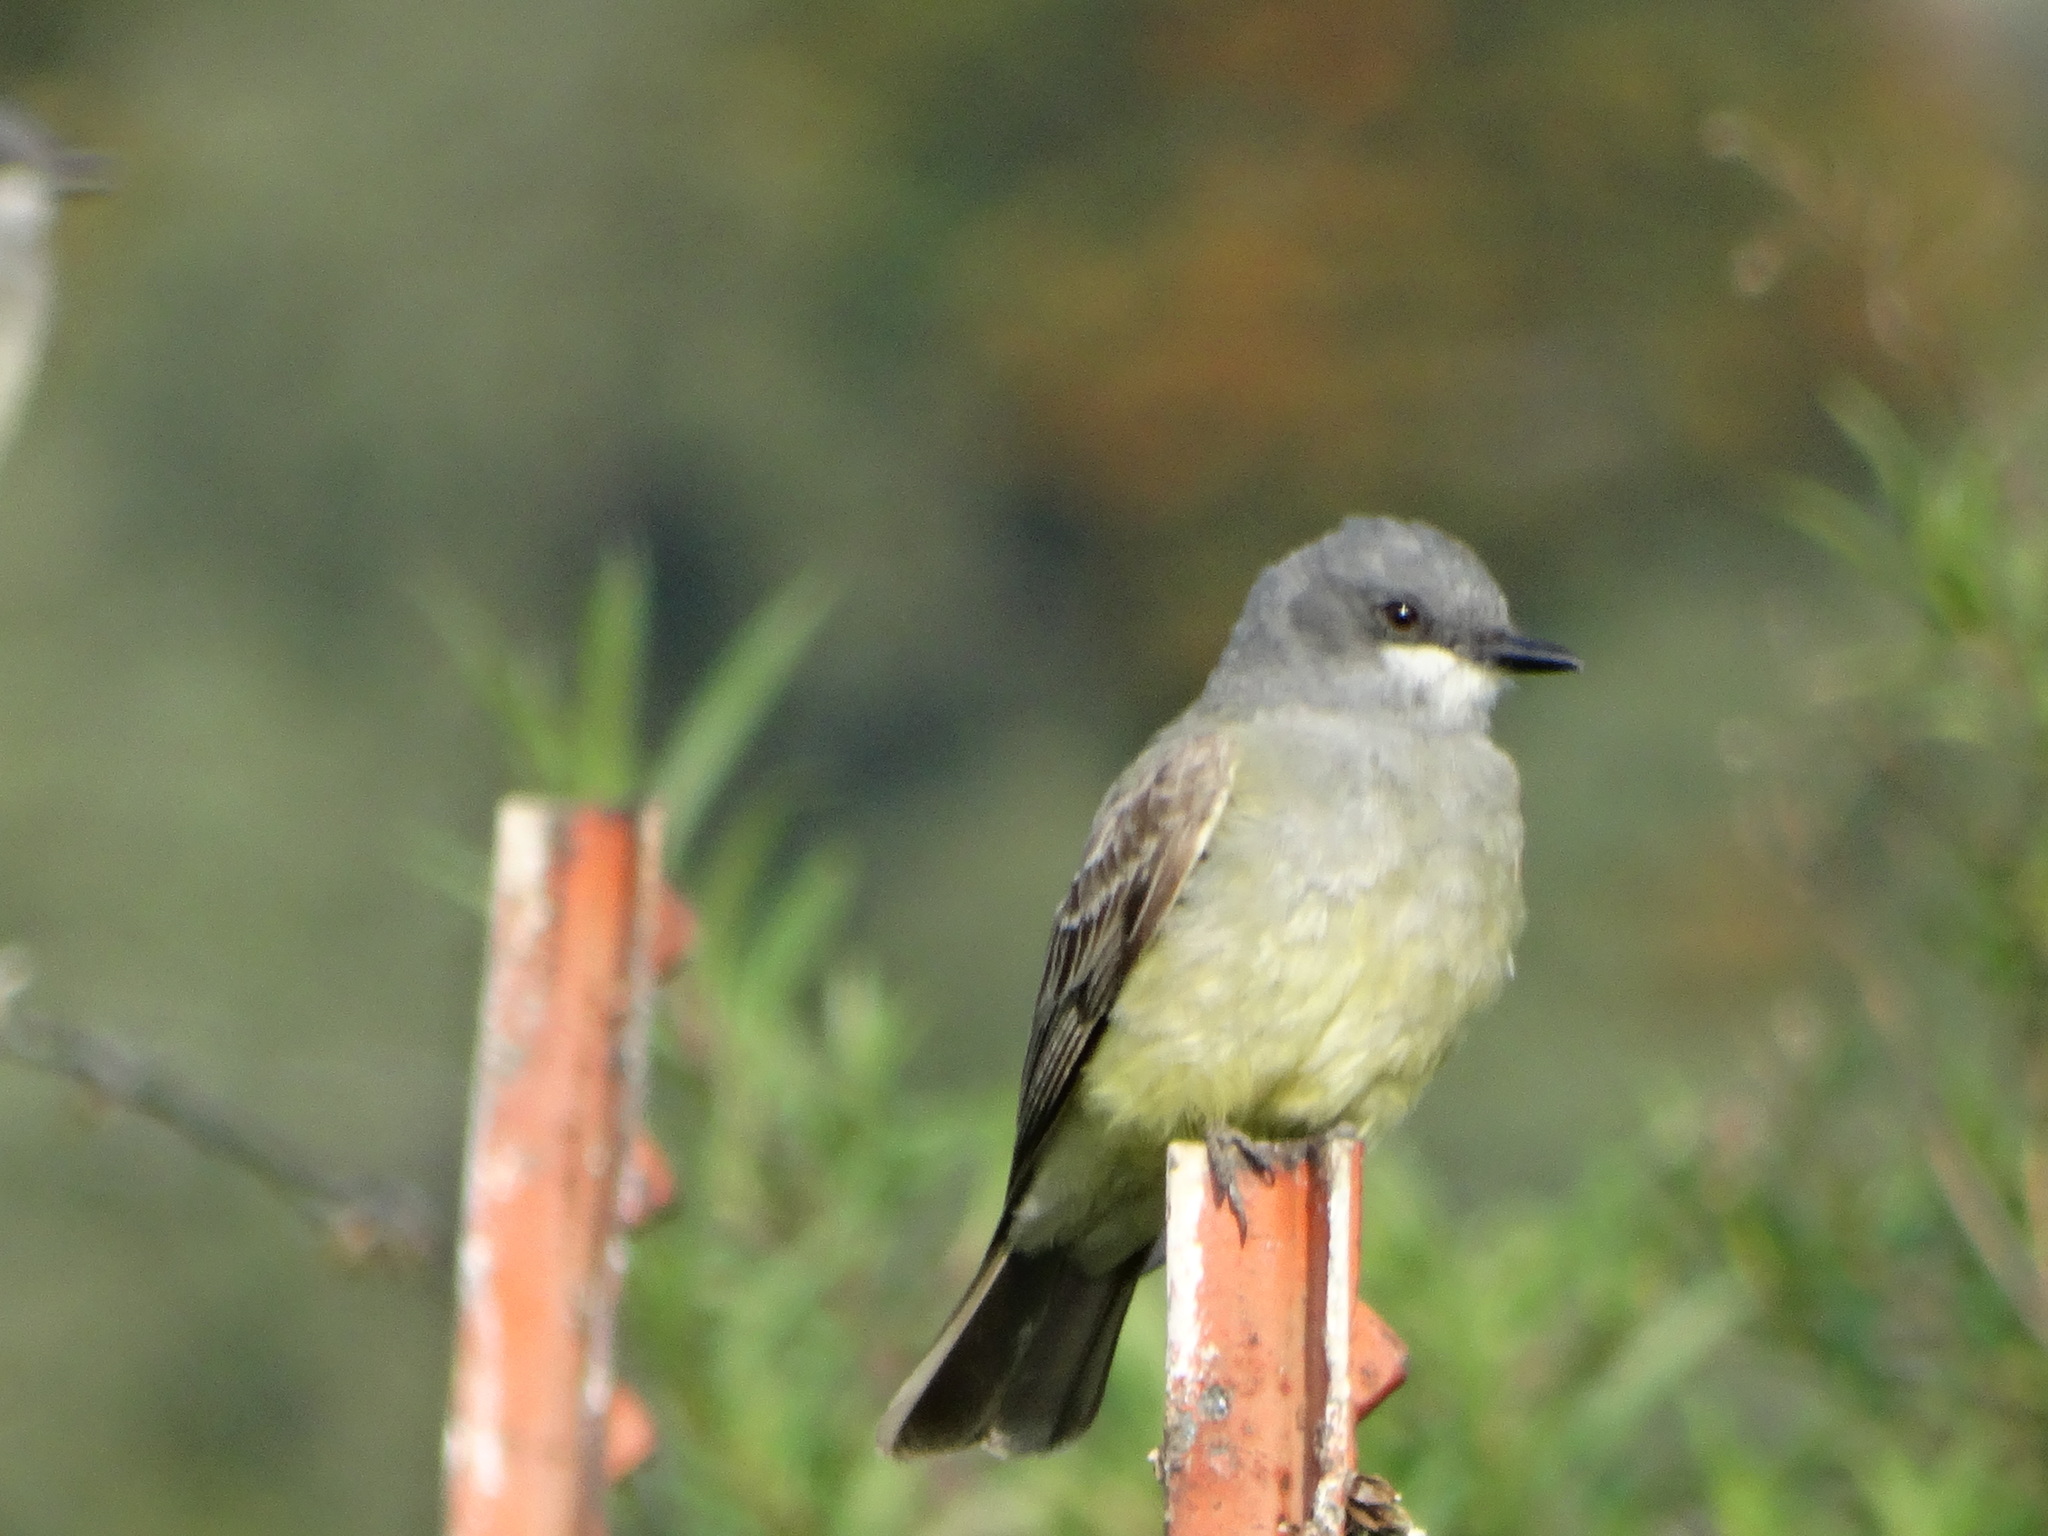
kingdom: Animalia
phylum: Chordata
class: Aves
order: Passeriformes
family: Tyrannidae
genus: Tyrannus
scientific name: Tyrannus vociferans
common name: Cassin's kingbird
